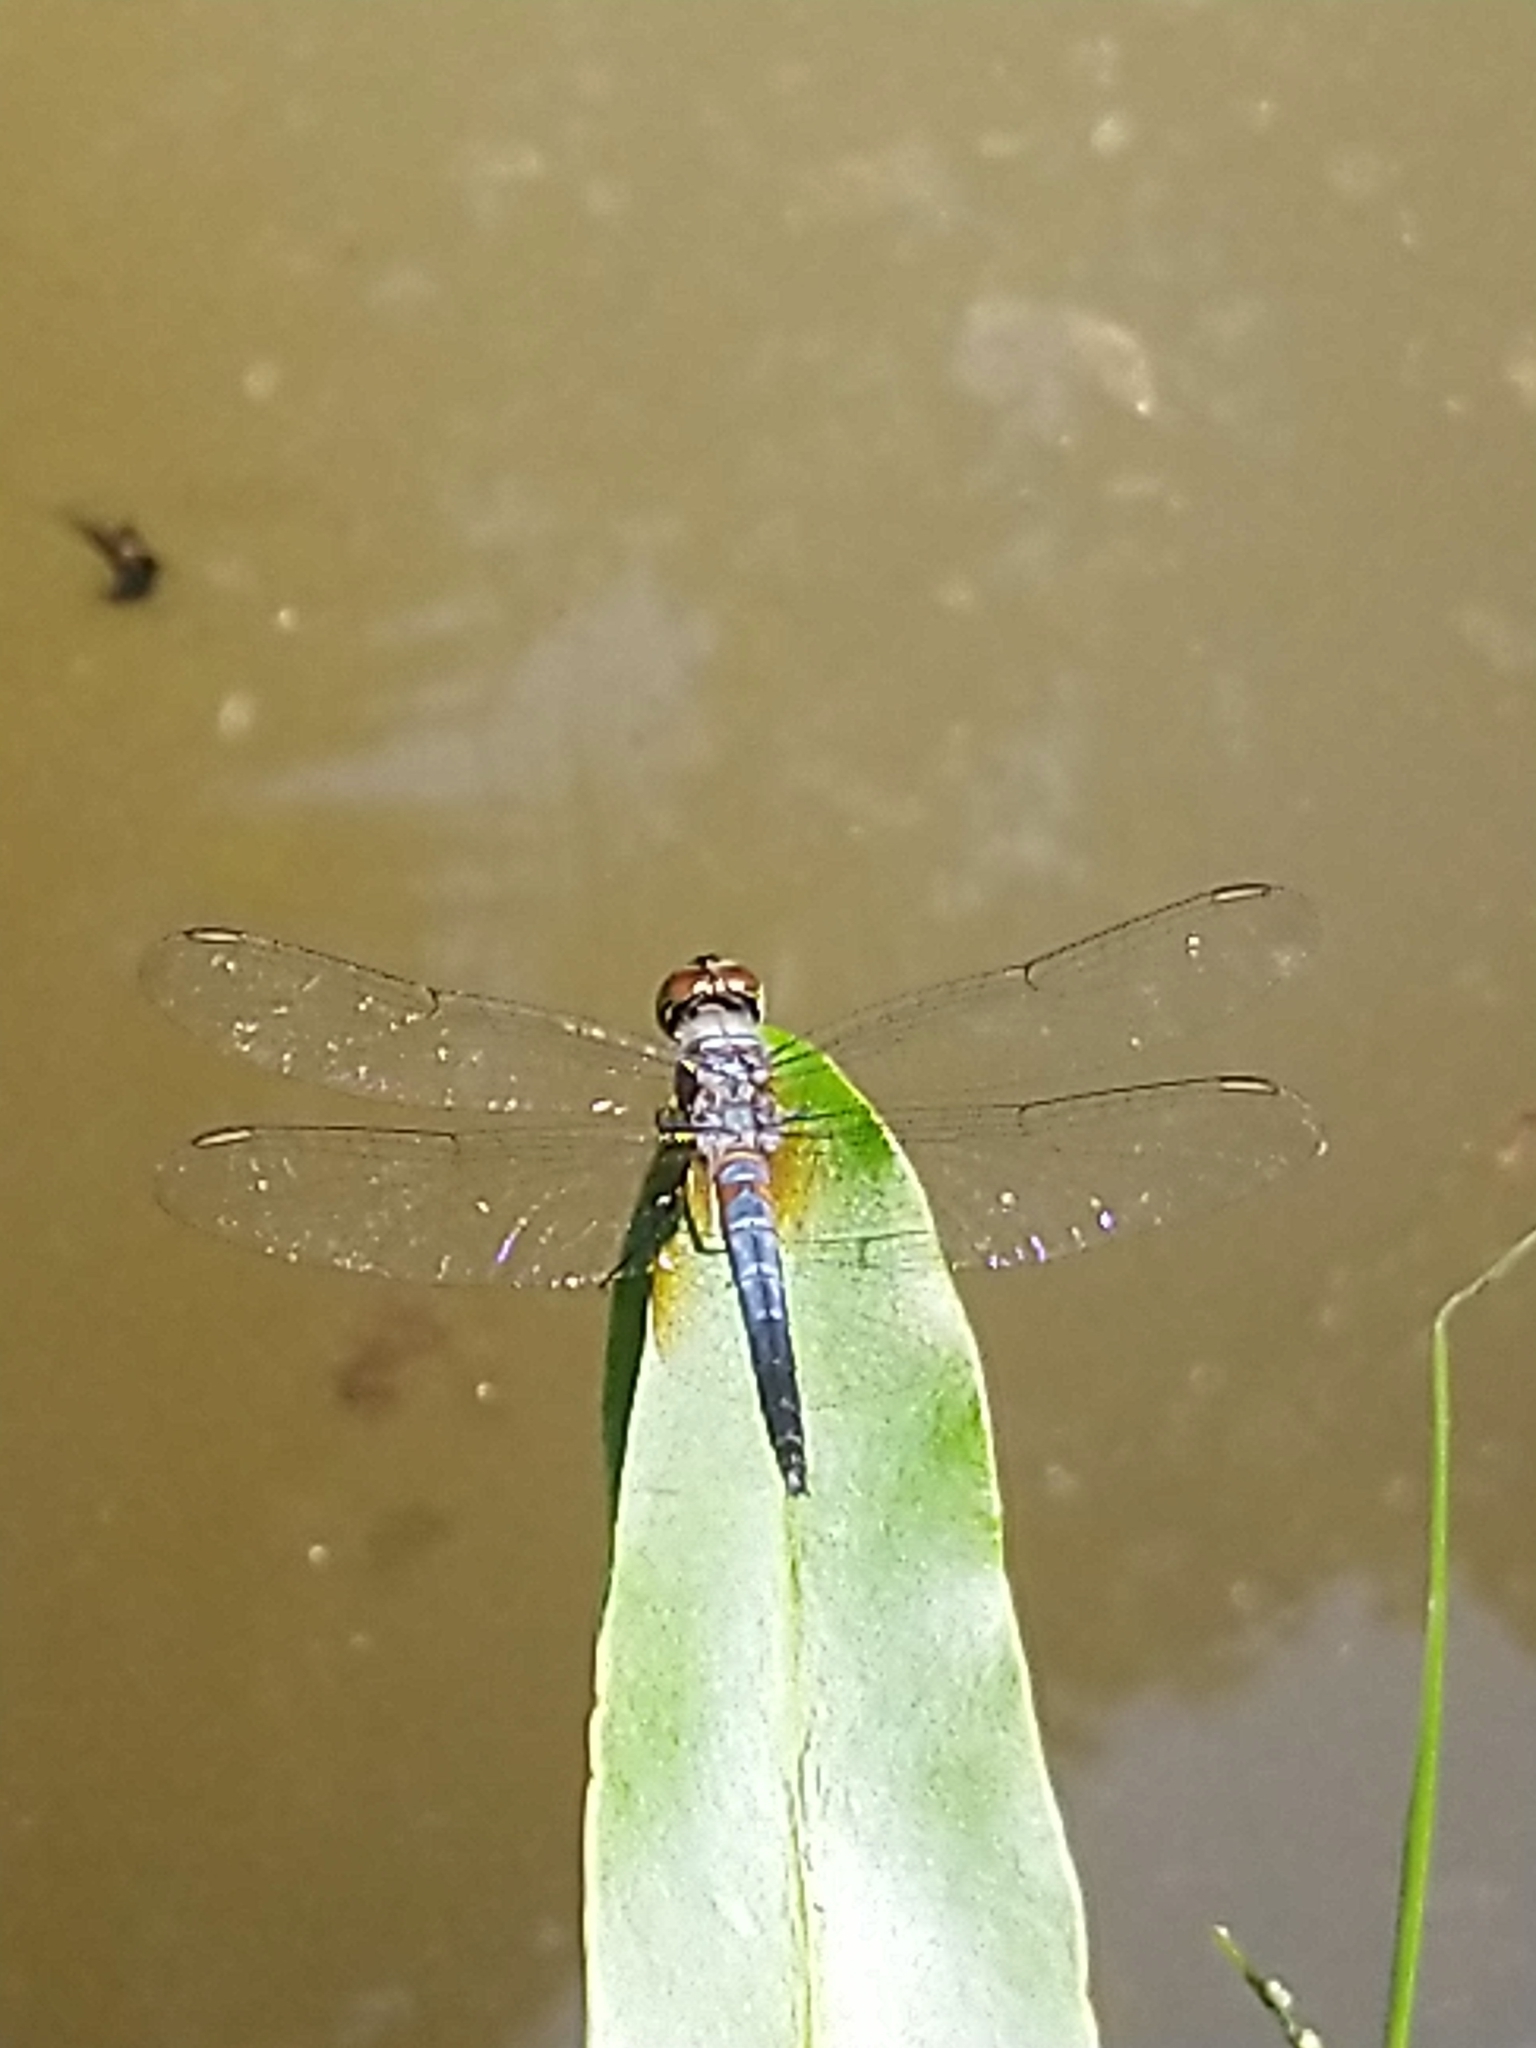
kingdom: Animalia
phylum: Arthropoda
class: Insecta
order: Odonata
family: Libellulidae
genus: Brachydiplax
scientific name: Brachydiplax chalybea
